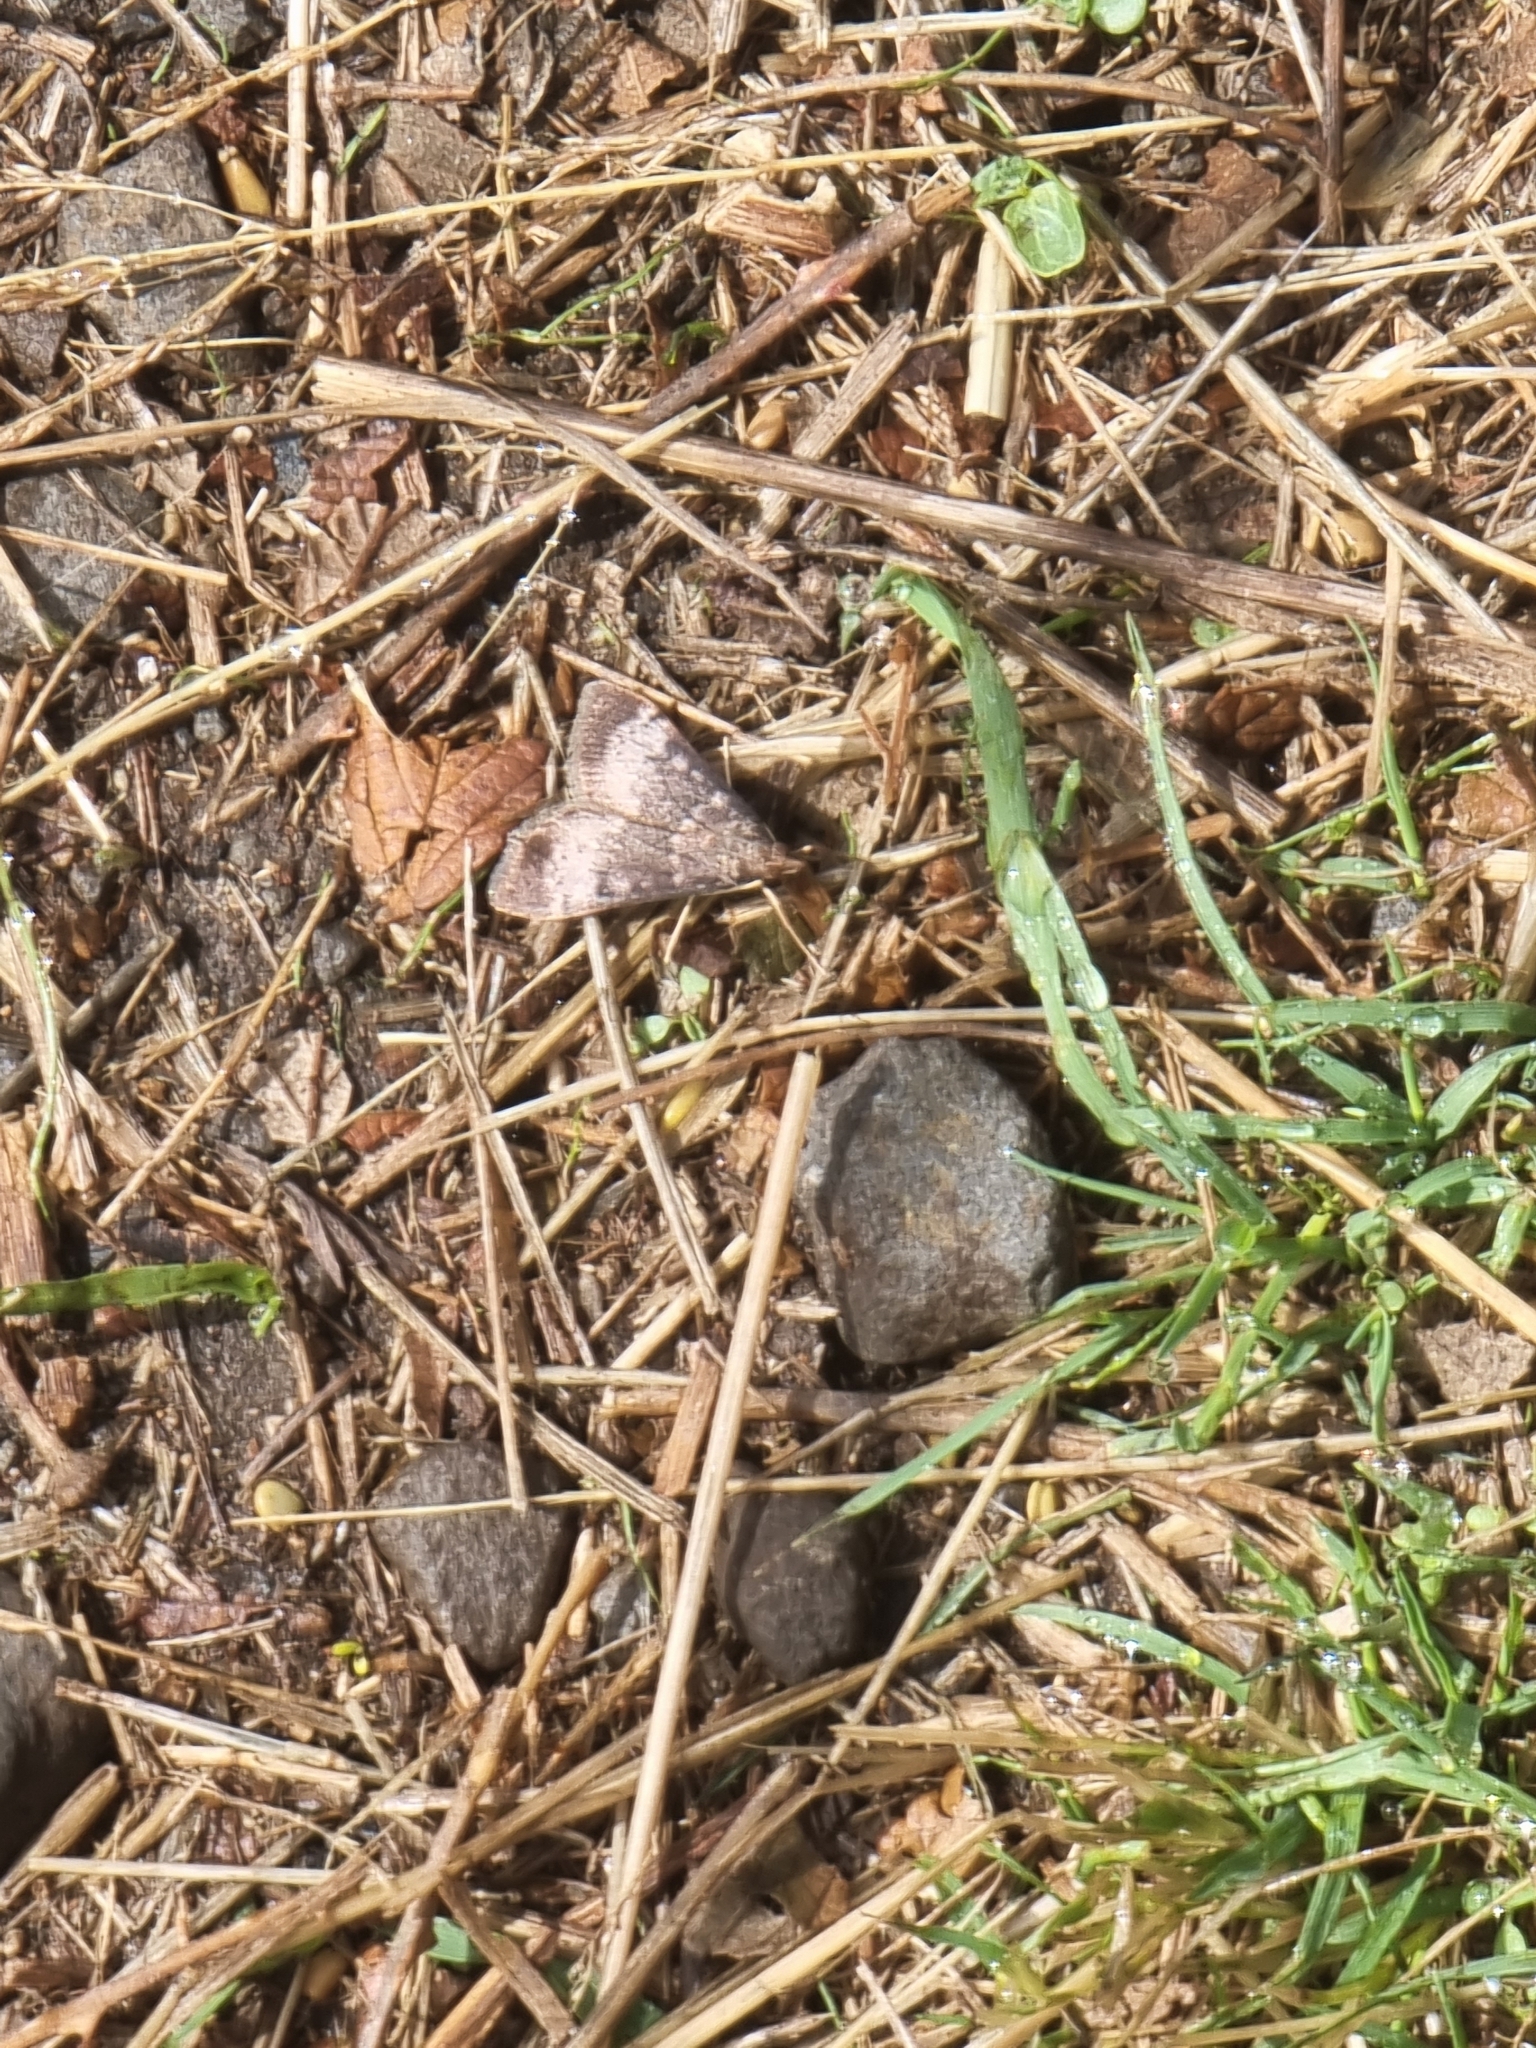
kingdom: Animalia
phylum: Arthropoda
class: Insecta
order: Lepidoptera
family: Crambidae
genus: Uresiphita
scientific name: Uresiphita gilvata
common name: Yellow-underwing pearl
